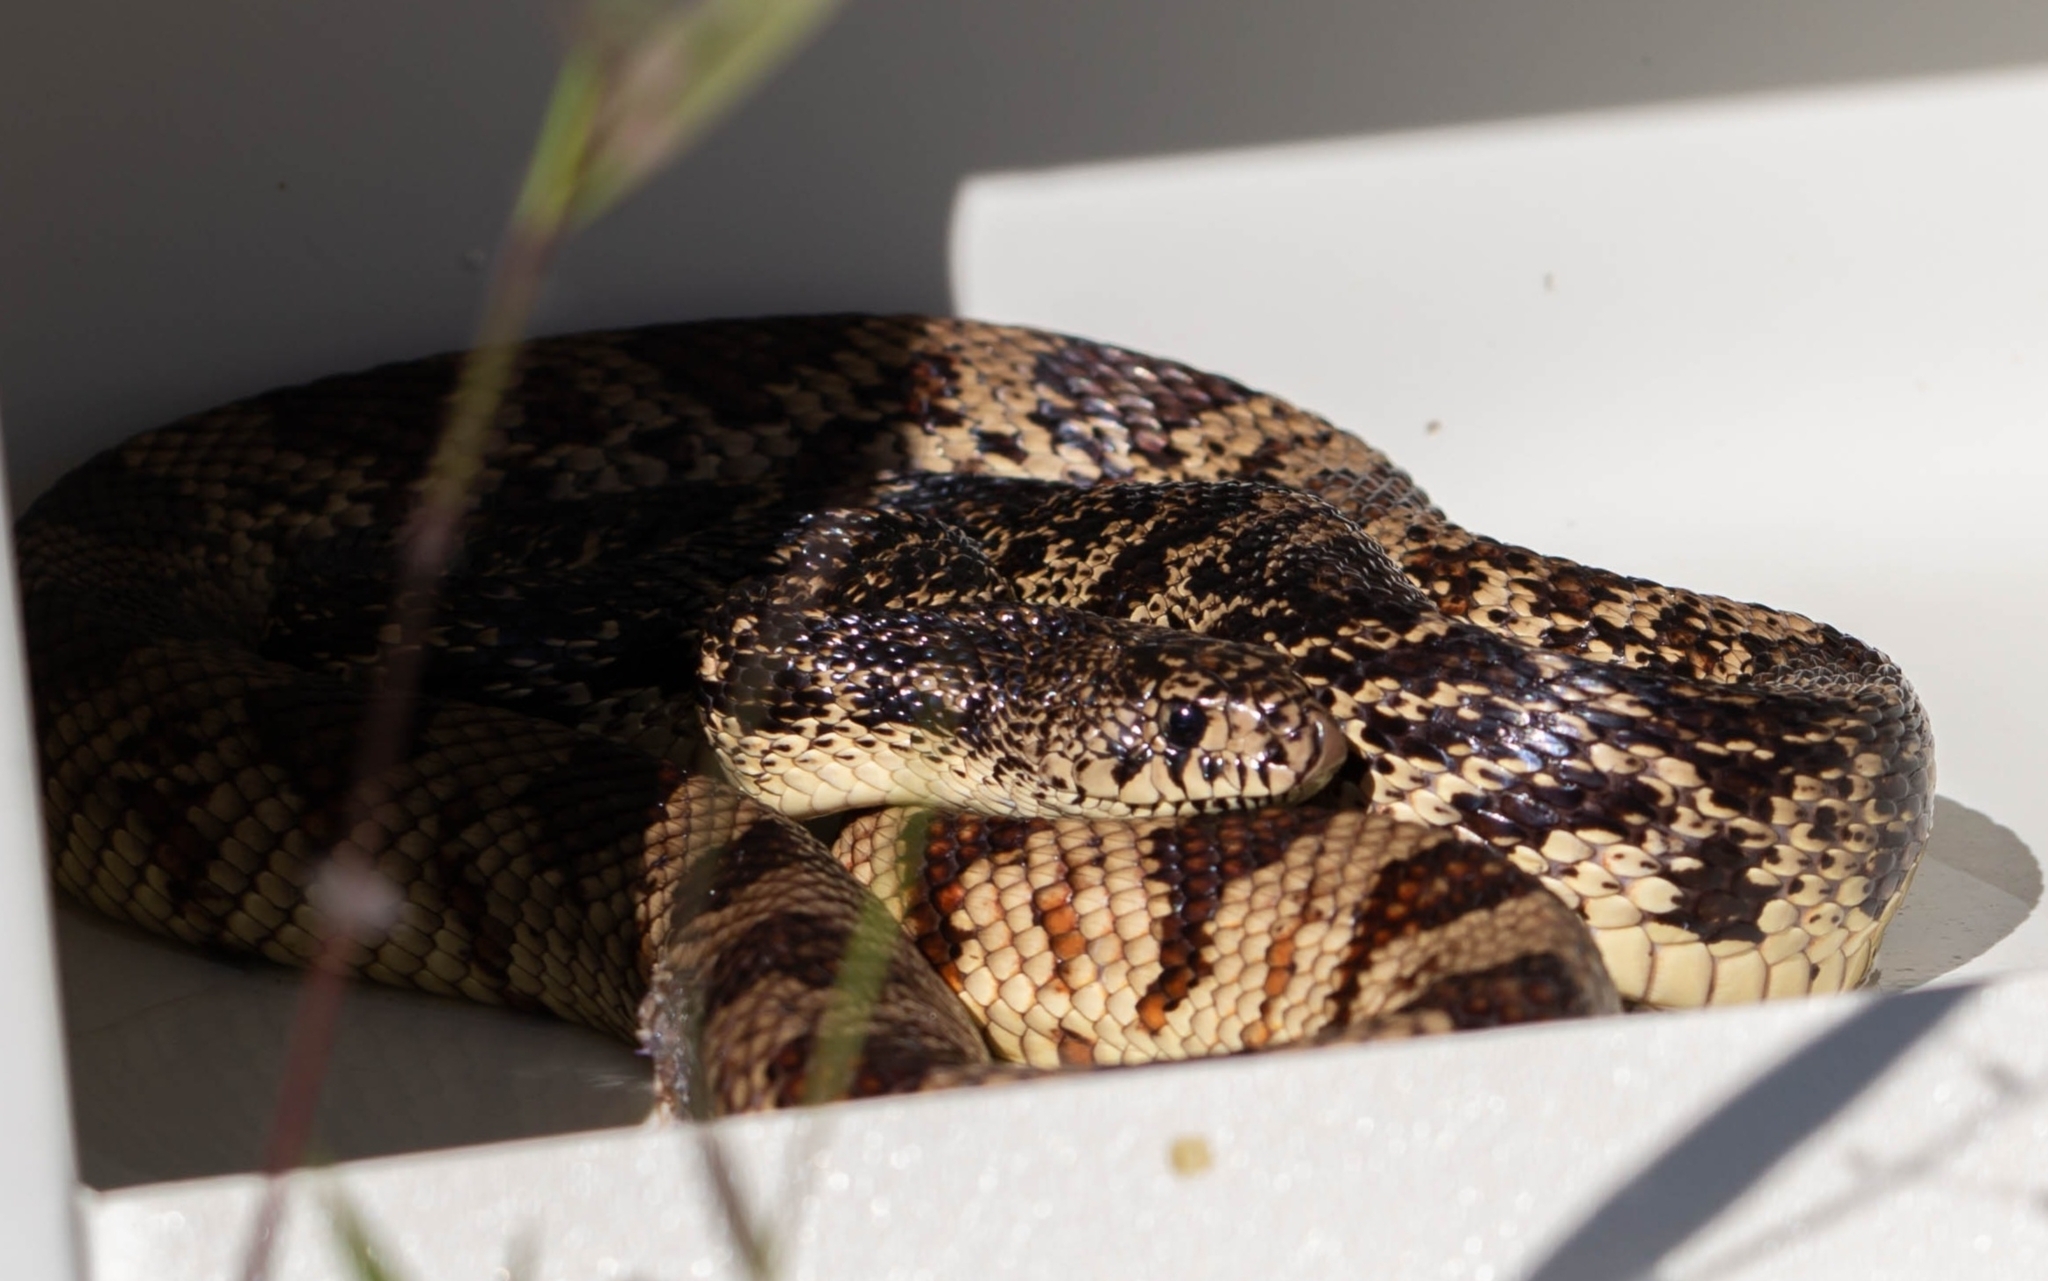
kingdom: Animalia
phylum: Chordata
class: Squamata
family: Colubridae
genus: Pituophis
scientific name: Pituophis ruthveni
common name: Louisiana pine snake
